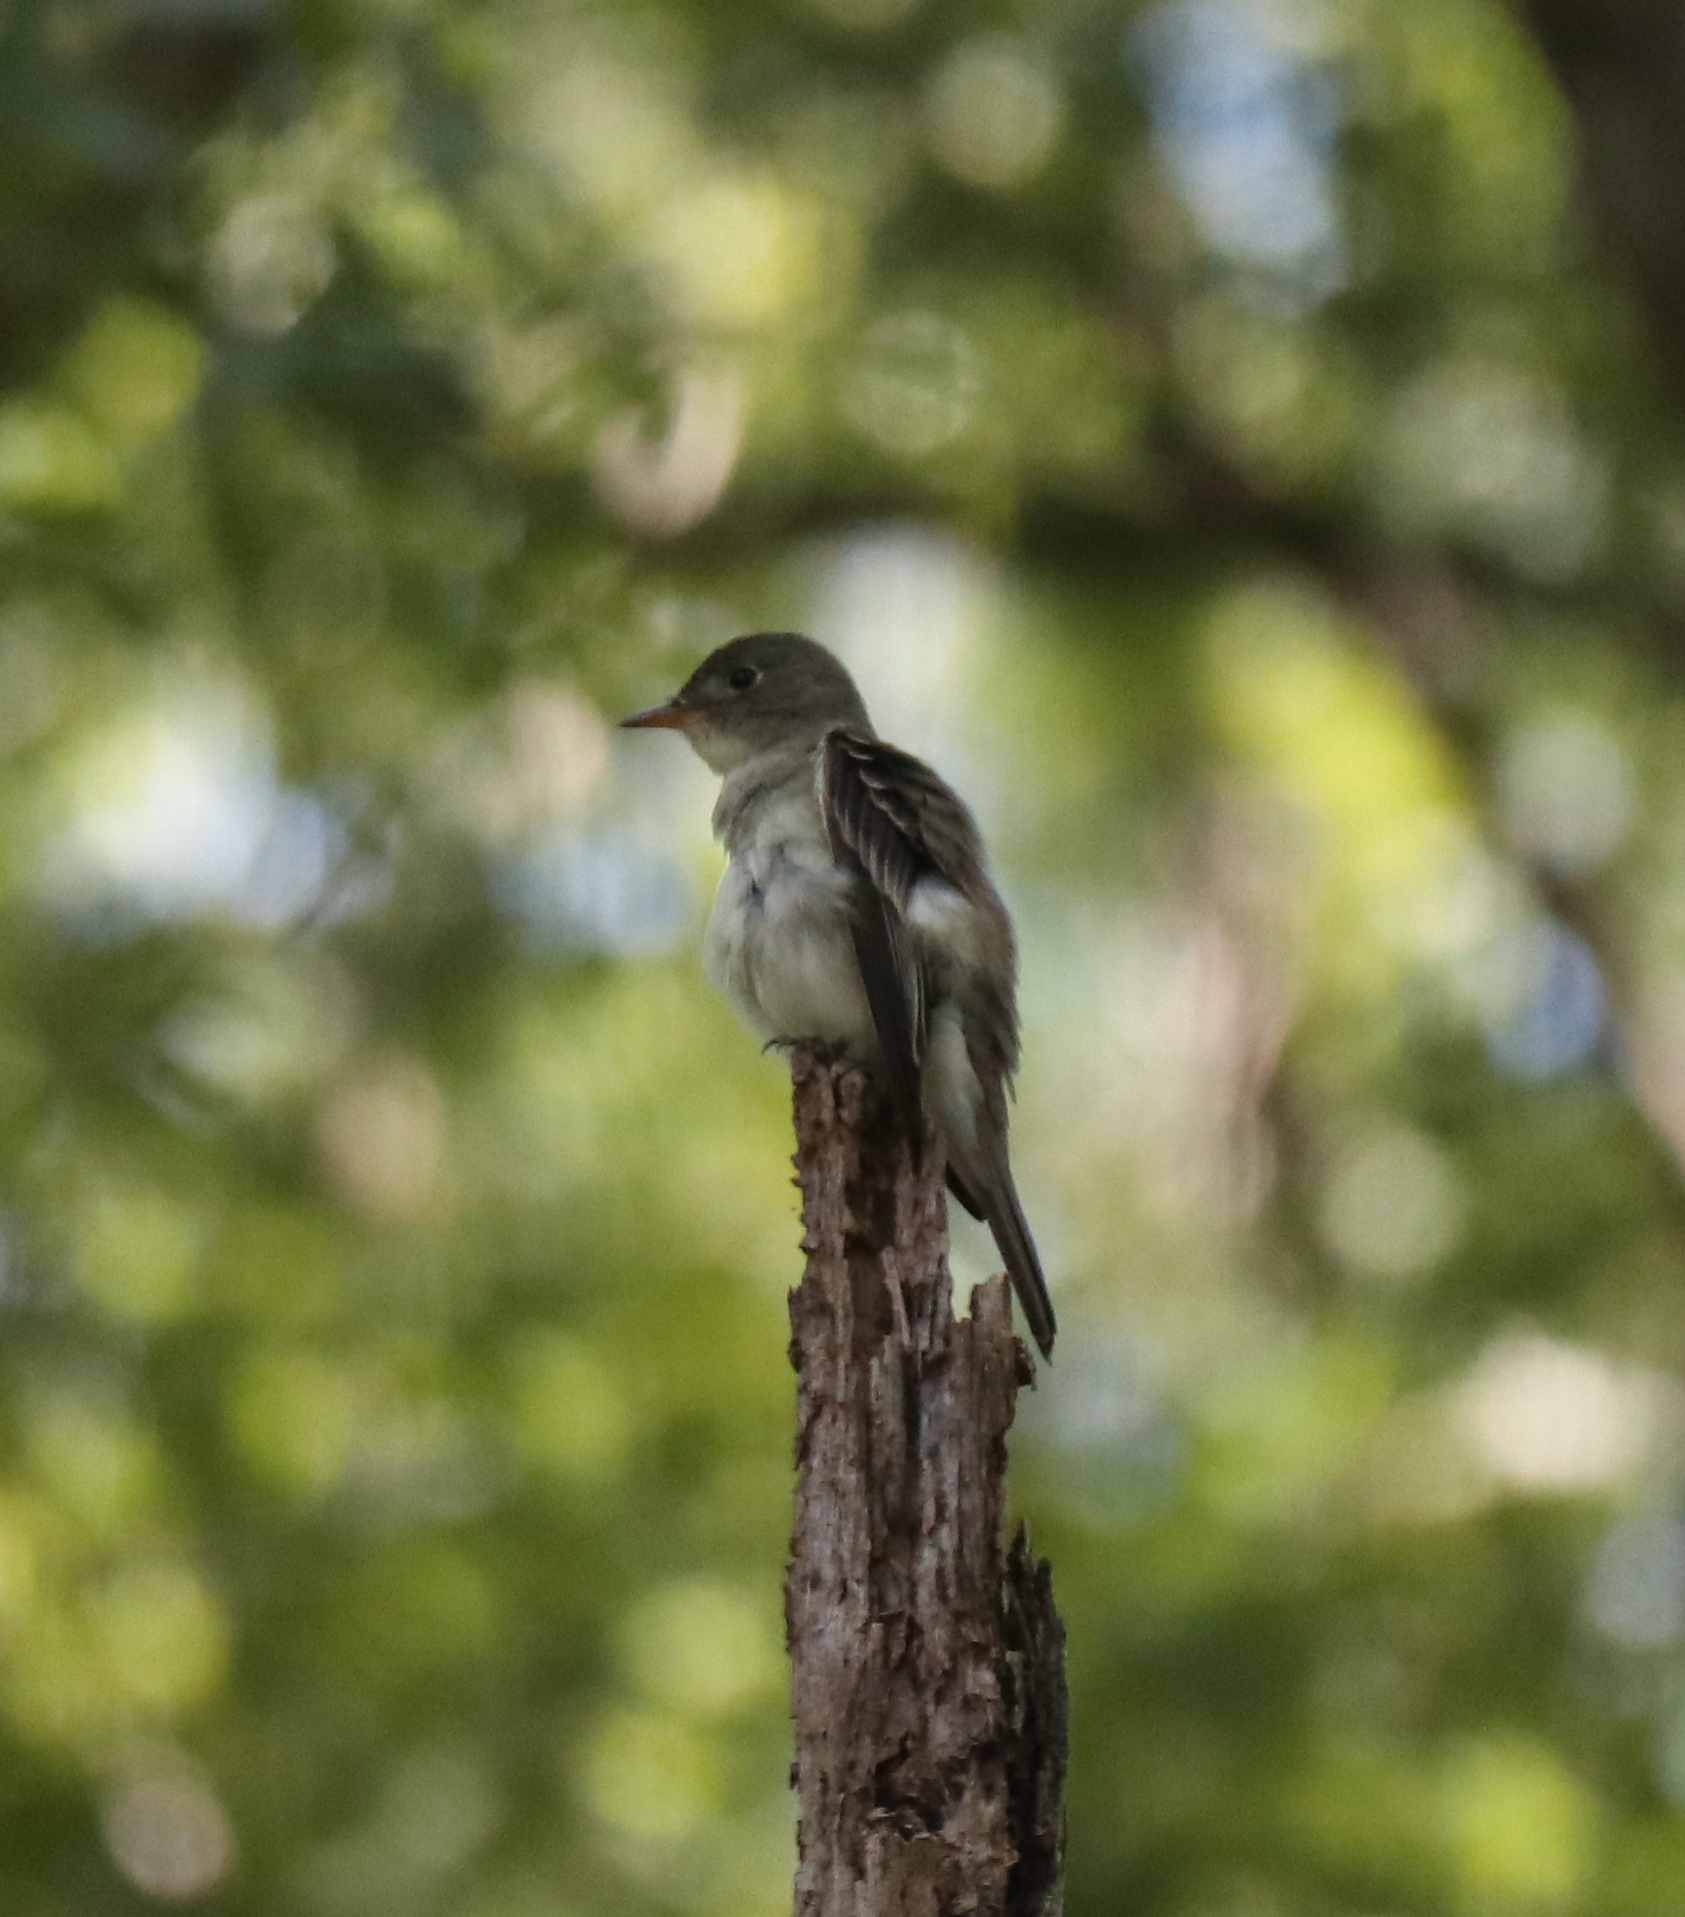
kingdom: Animalia
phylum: Chordata
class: Aves
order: Passeriformes
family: Tyrannidae
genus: Contopus
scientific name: Contopus virens
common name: Eastern wood-pewee
